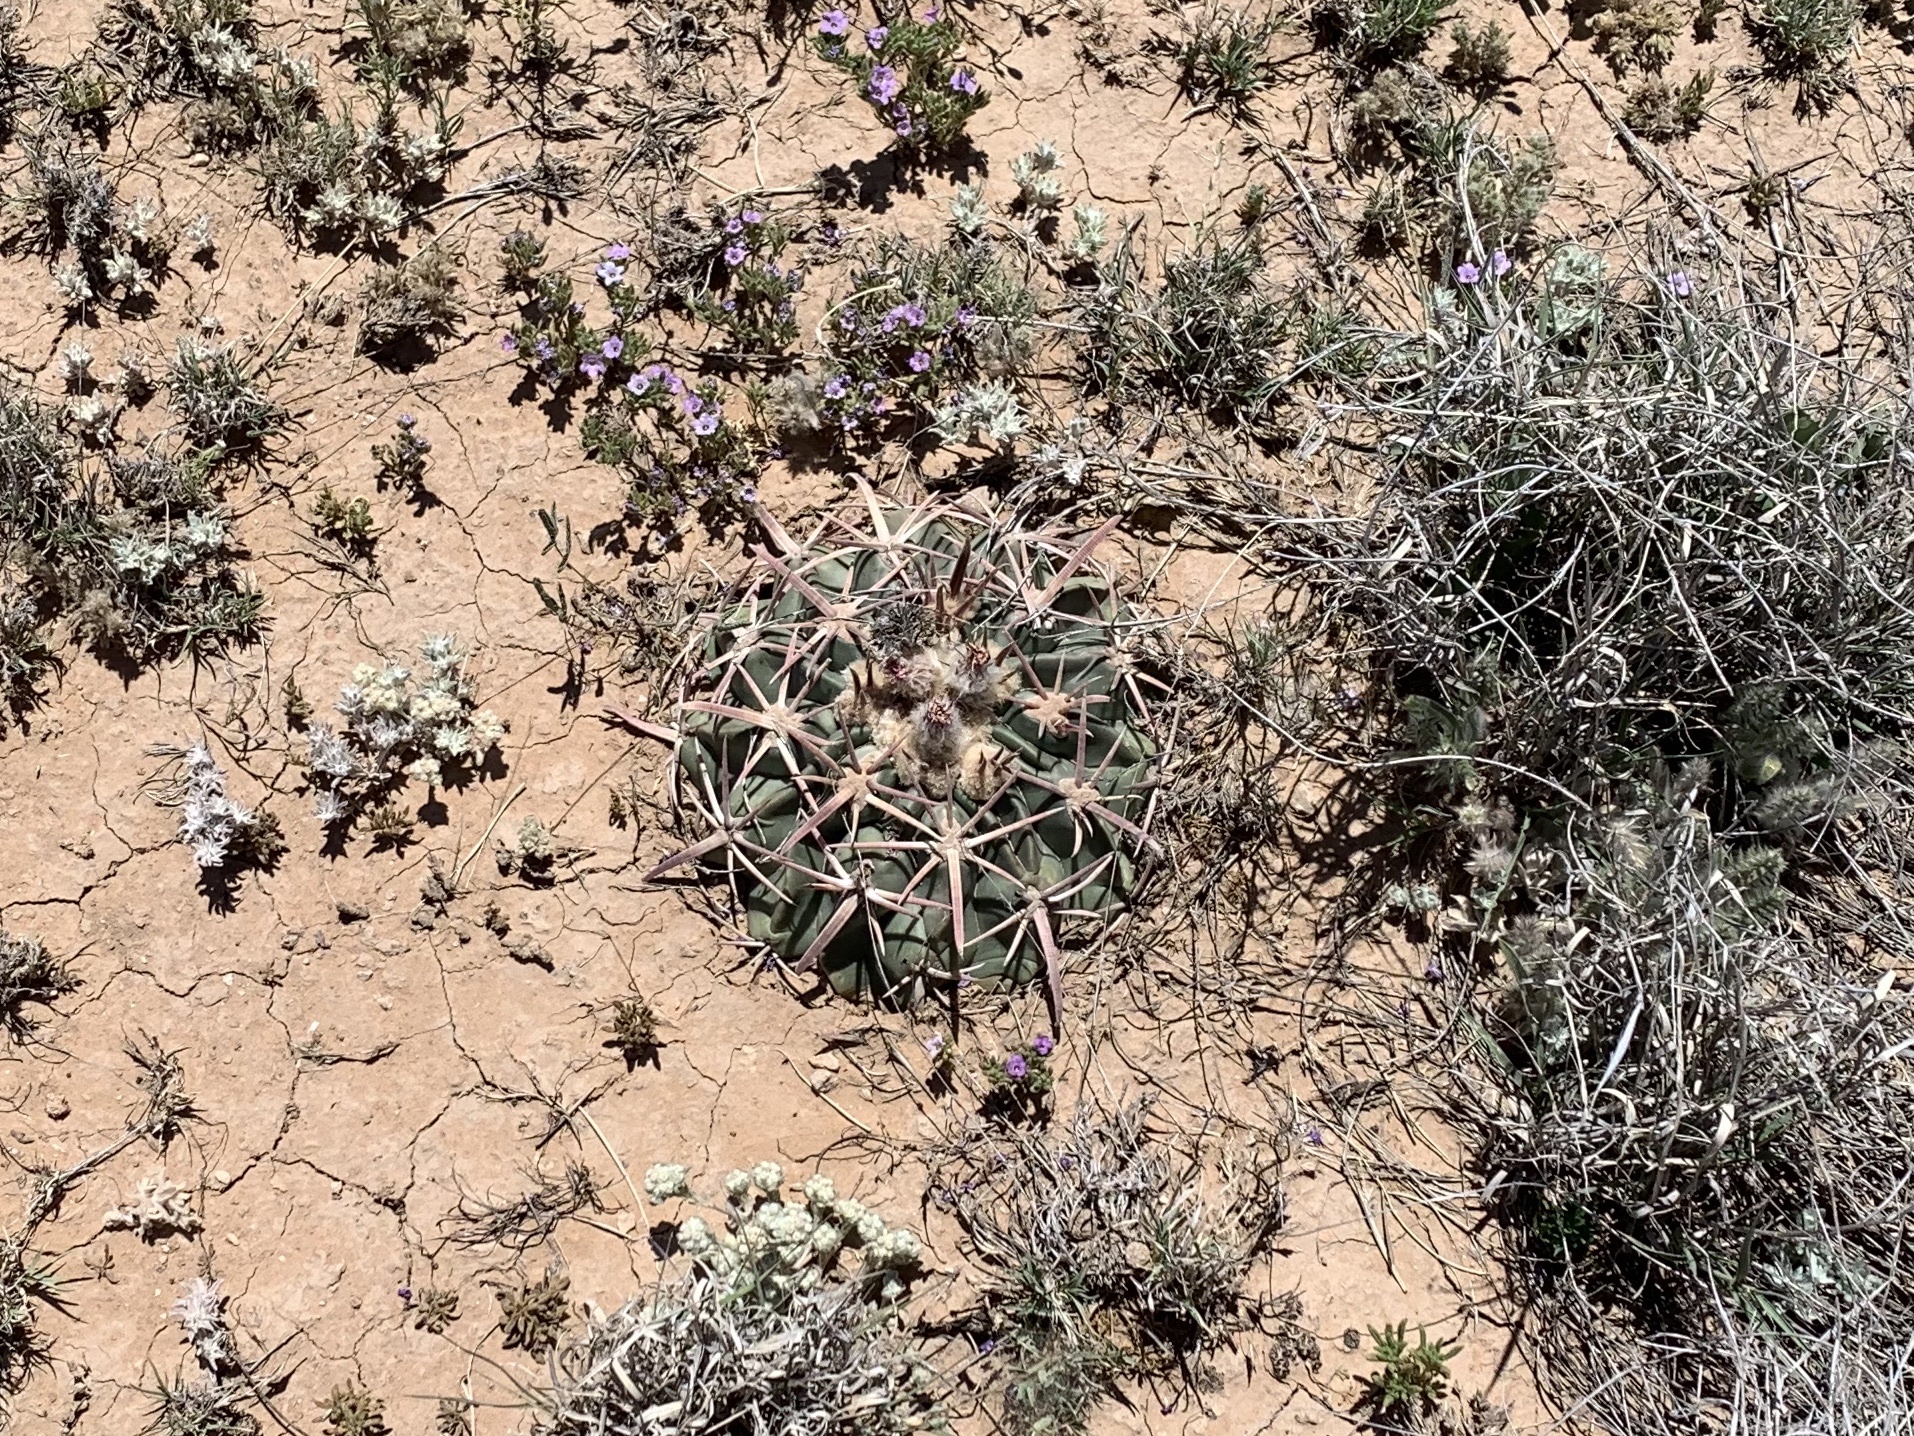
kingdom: Plantae
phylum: Tracheophyta
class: Magnoliopsida
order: Caryophyllales
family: Cactaceae
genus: Echinocactus
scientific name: Echinocactus texensis
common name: Devil's pincushion
